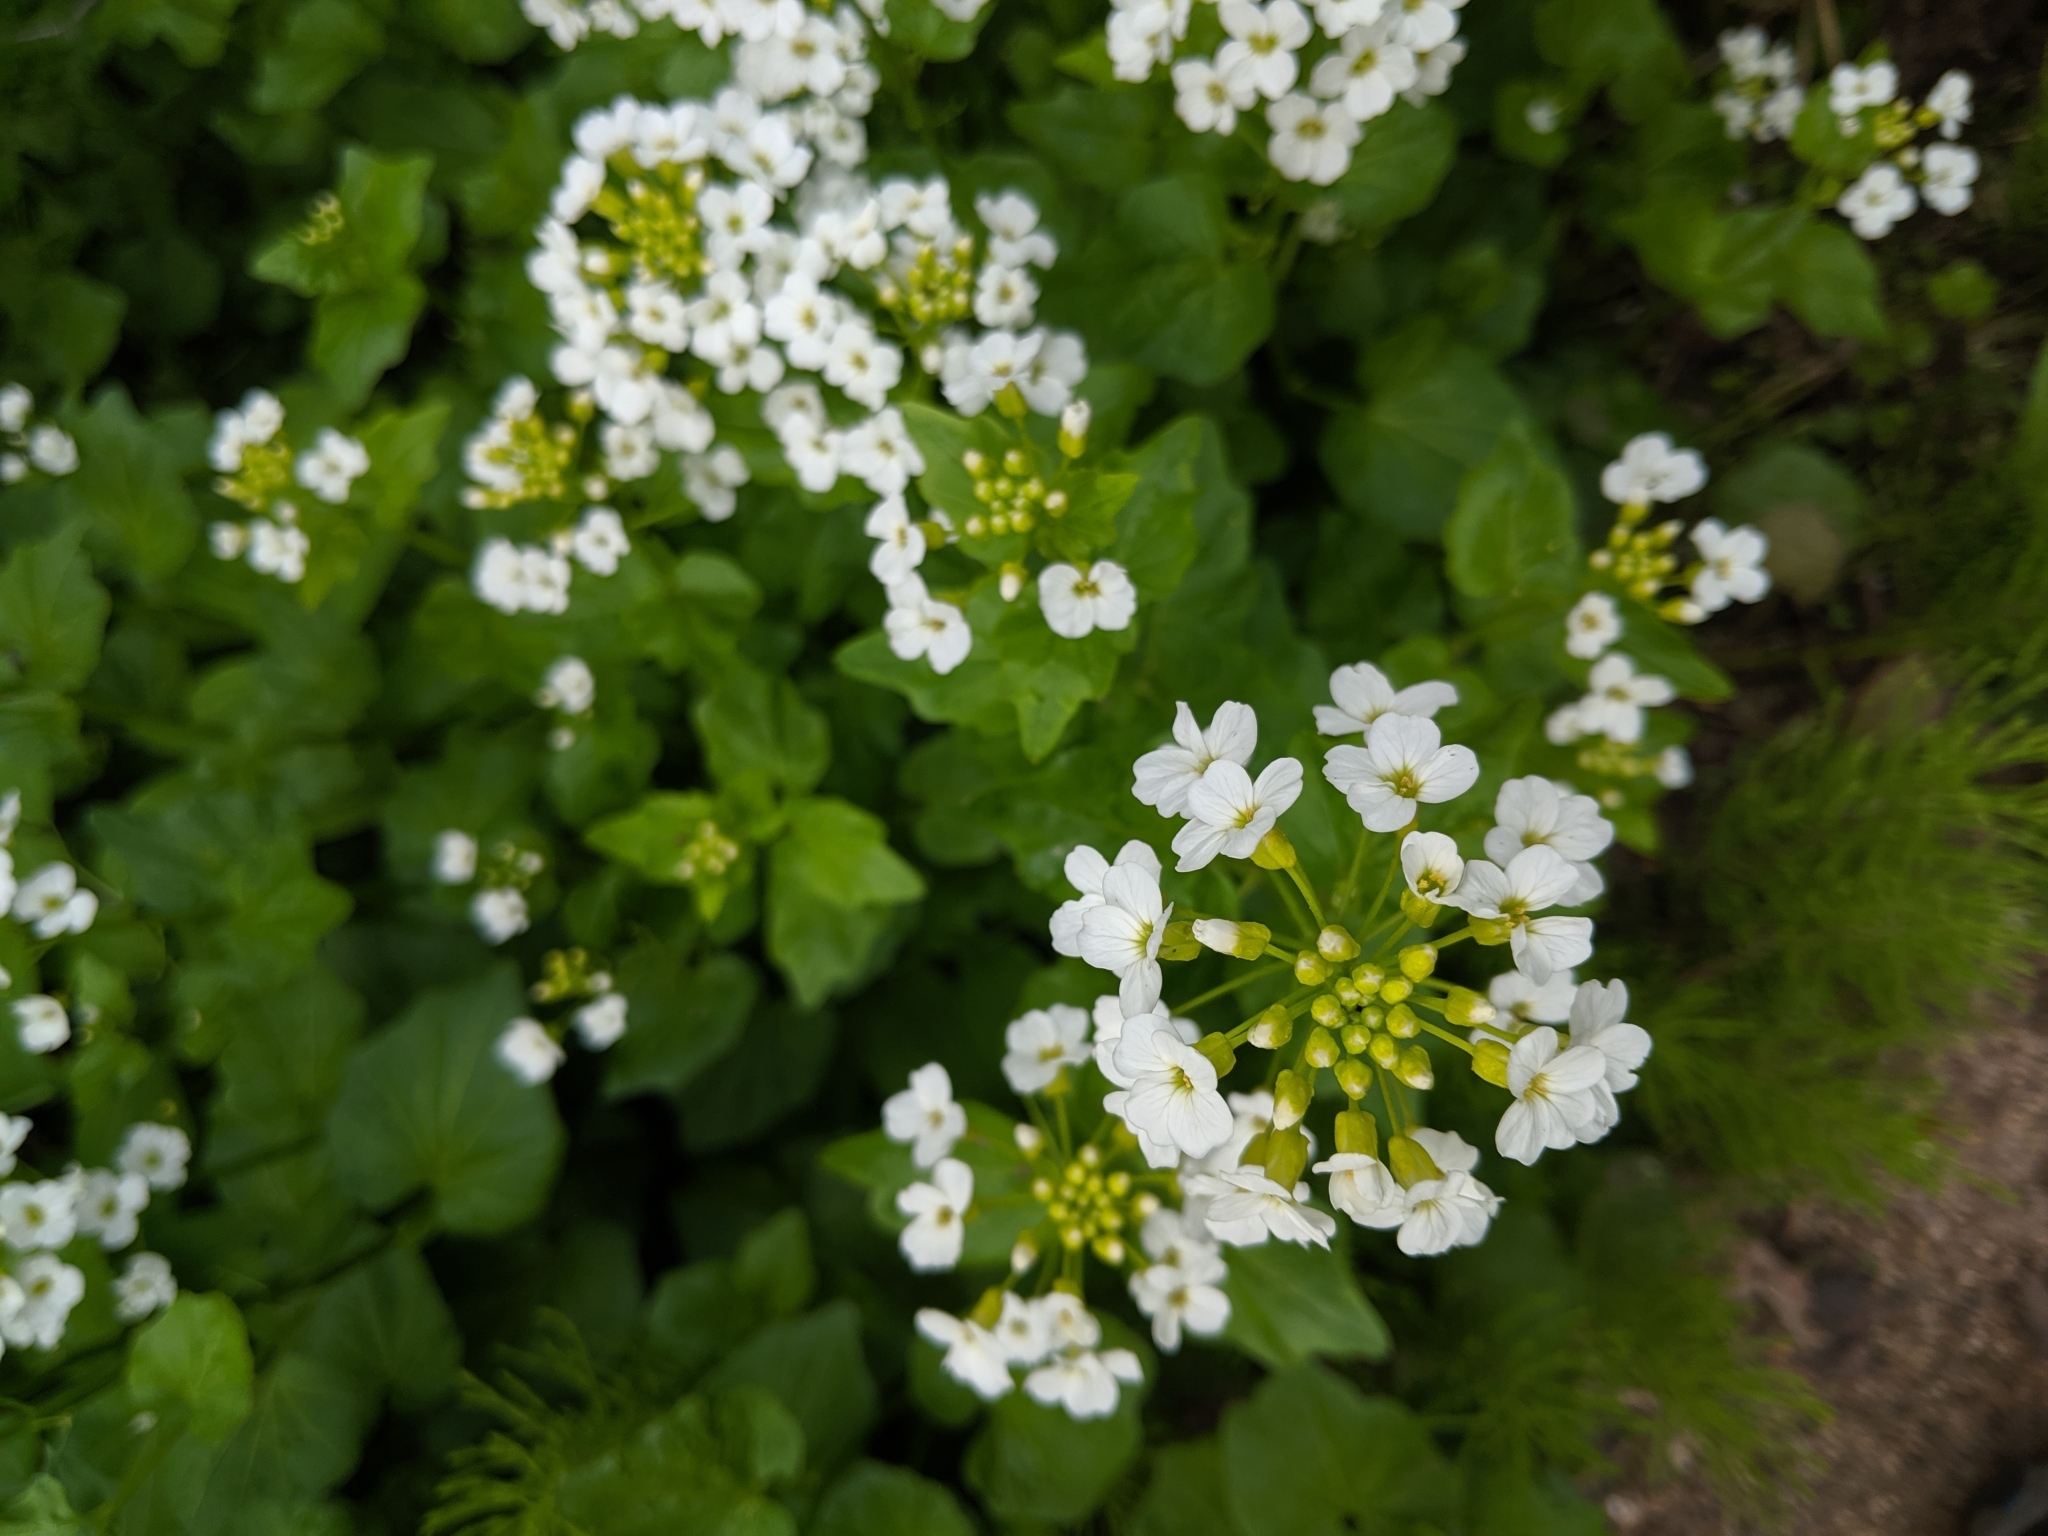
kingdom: Plantae
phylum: Tracheophyta
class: Magnoliopsida
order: Brassicales
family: Brassicaceae
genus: Cardamine
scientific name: Cardamine cordifolia
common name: Heart-leaf bittercress
